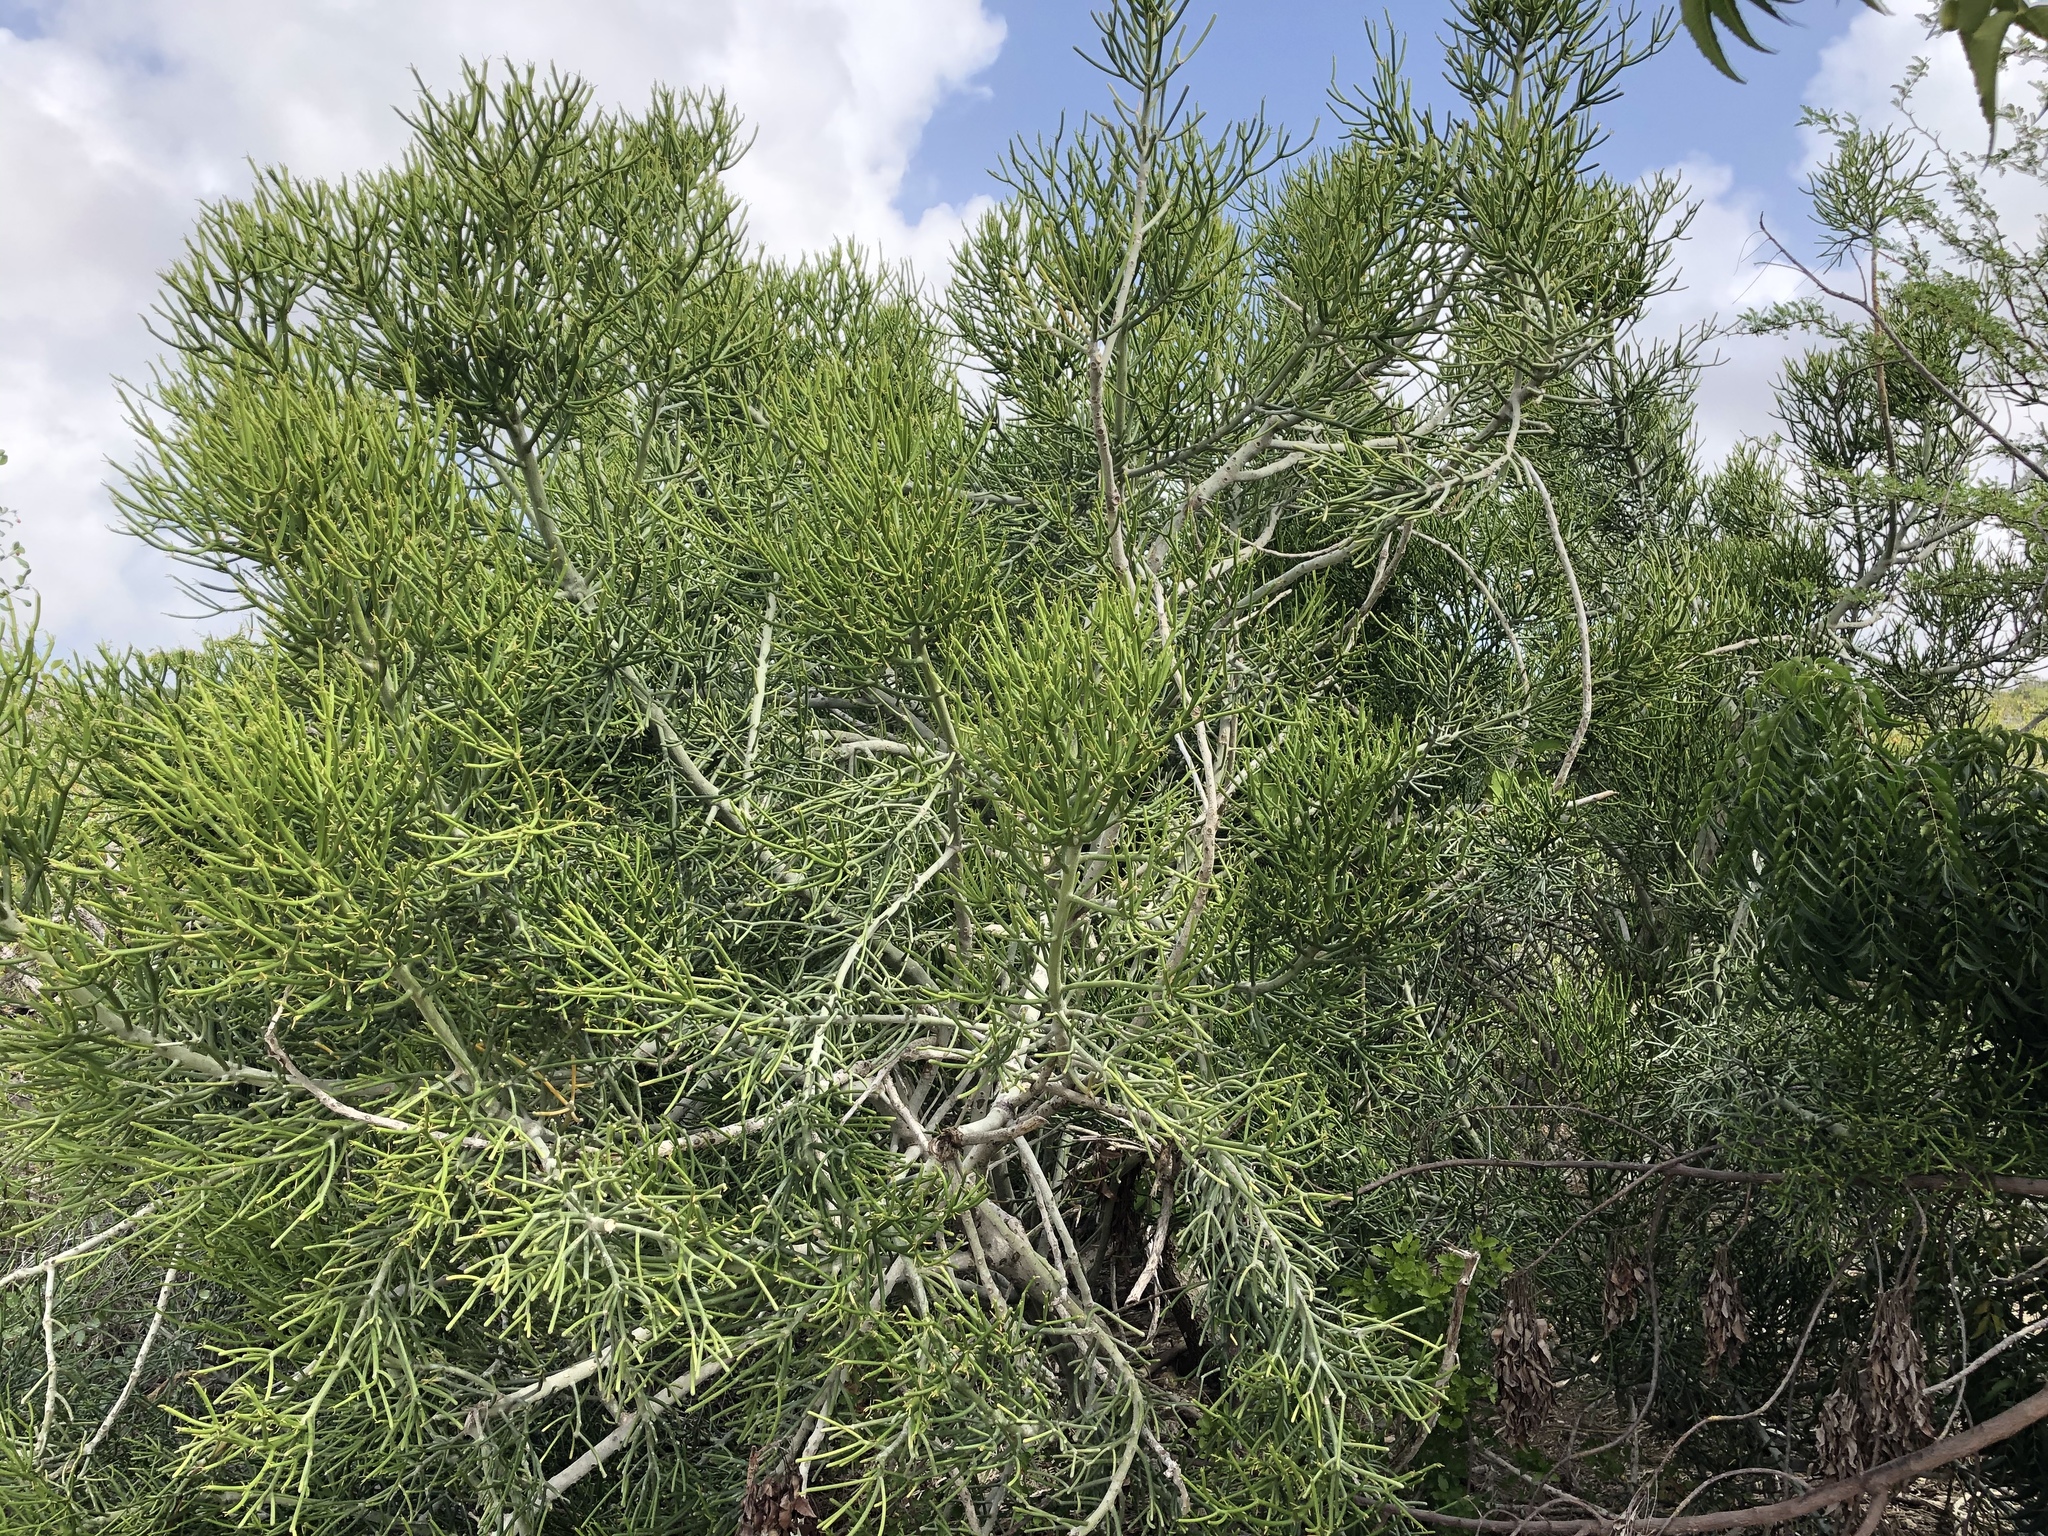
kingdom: Plantae
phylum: Tracheophyta
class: Magnoliopsida
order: Malpighiales
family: Euphorbiaceae
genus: Euphorbia
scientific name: Euphorbia tirucalli
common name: Indiantree spurge
